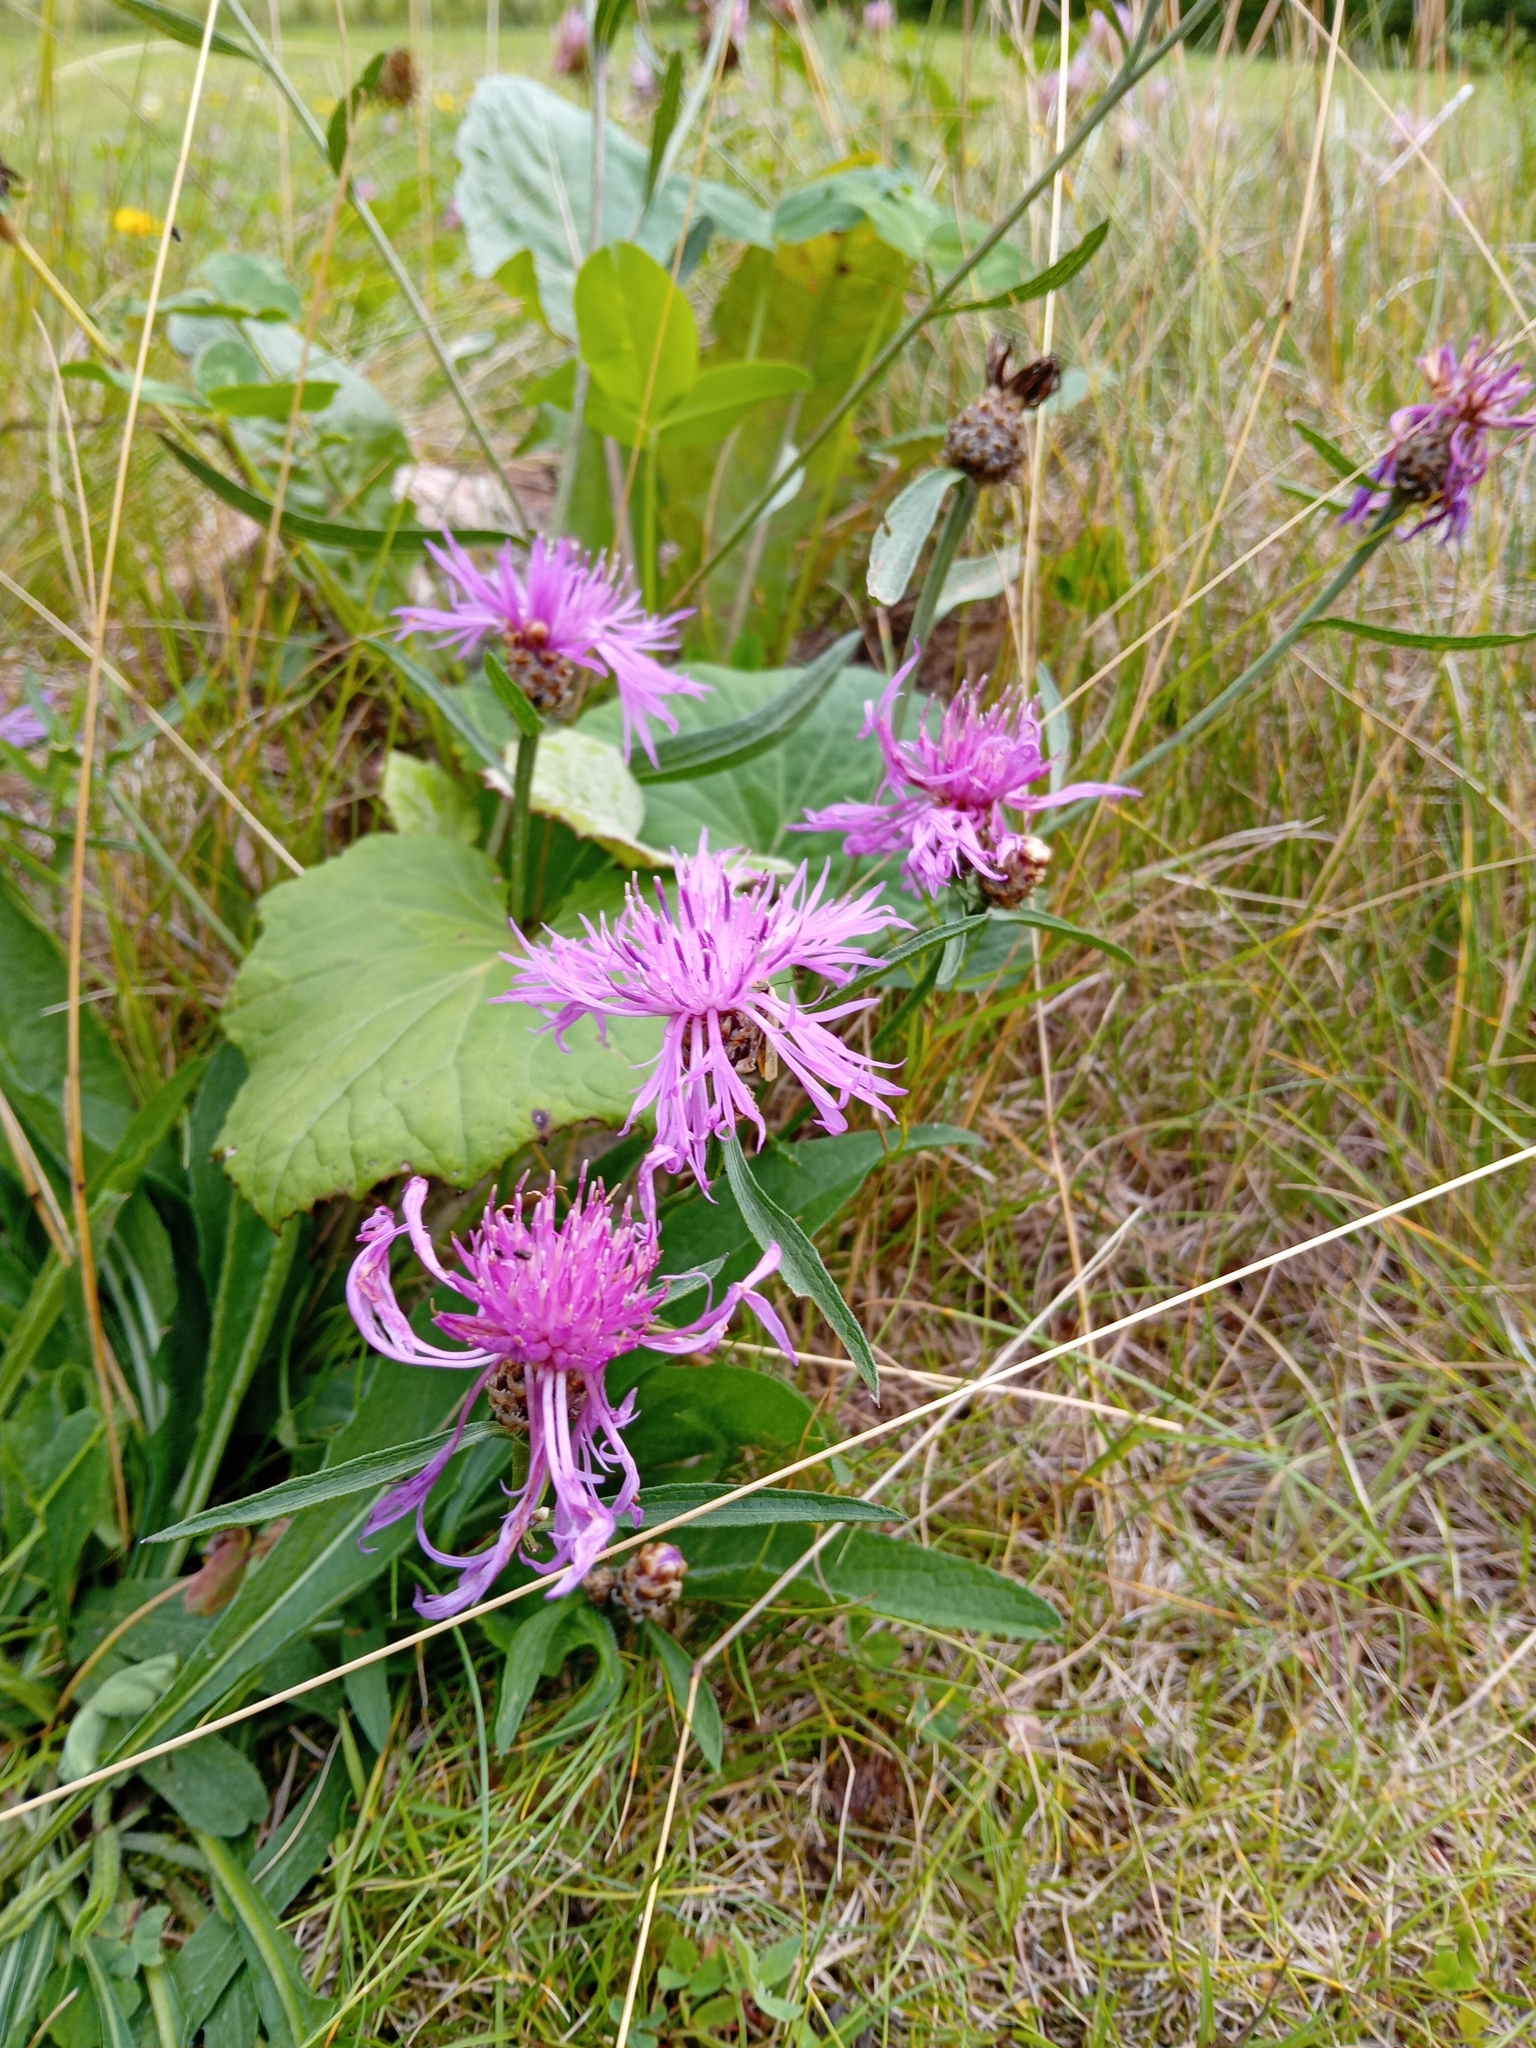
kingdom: Plantae
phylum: Tracheophyta
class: Magnoliopsida
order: Asterales
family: Asteraceae
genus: Centaurea
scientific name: Centaurea jacea
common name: Brown knapweed
